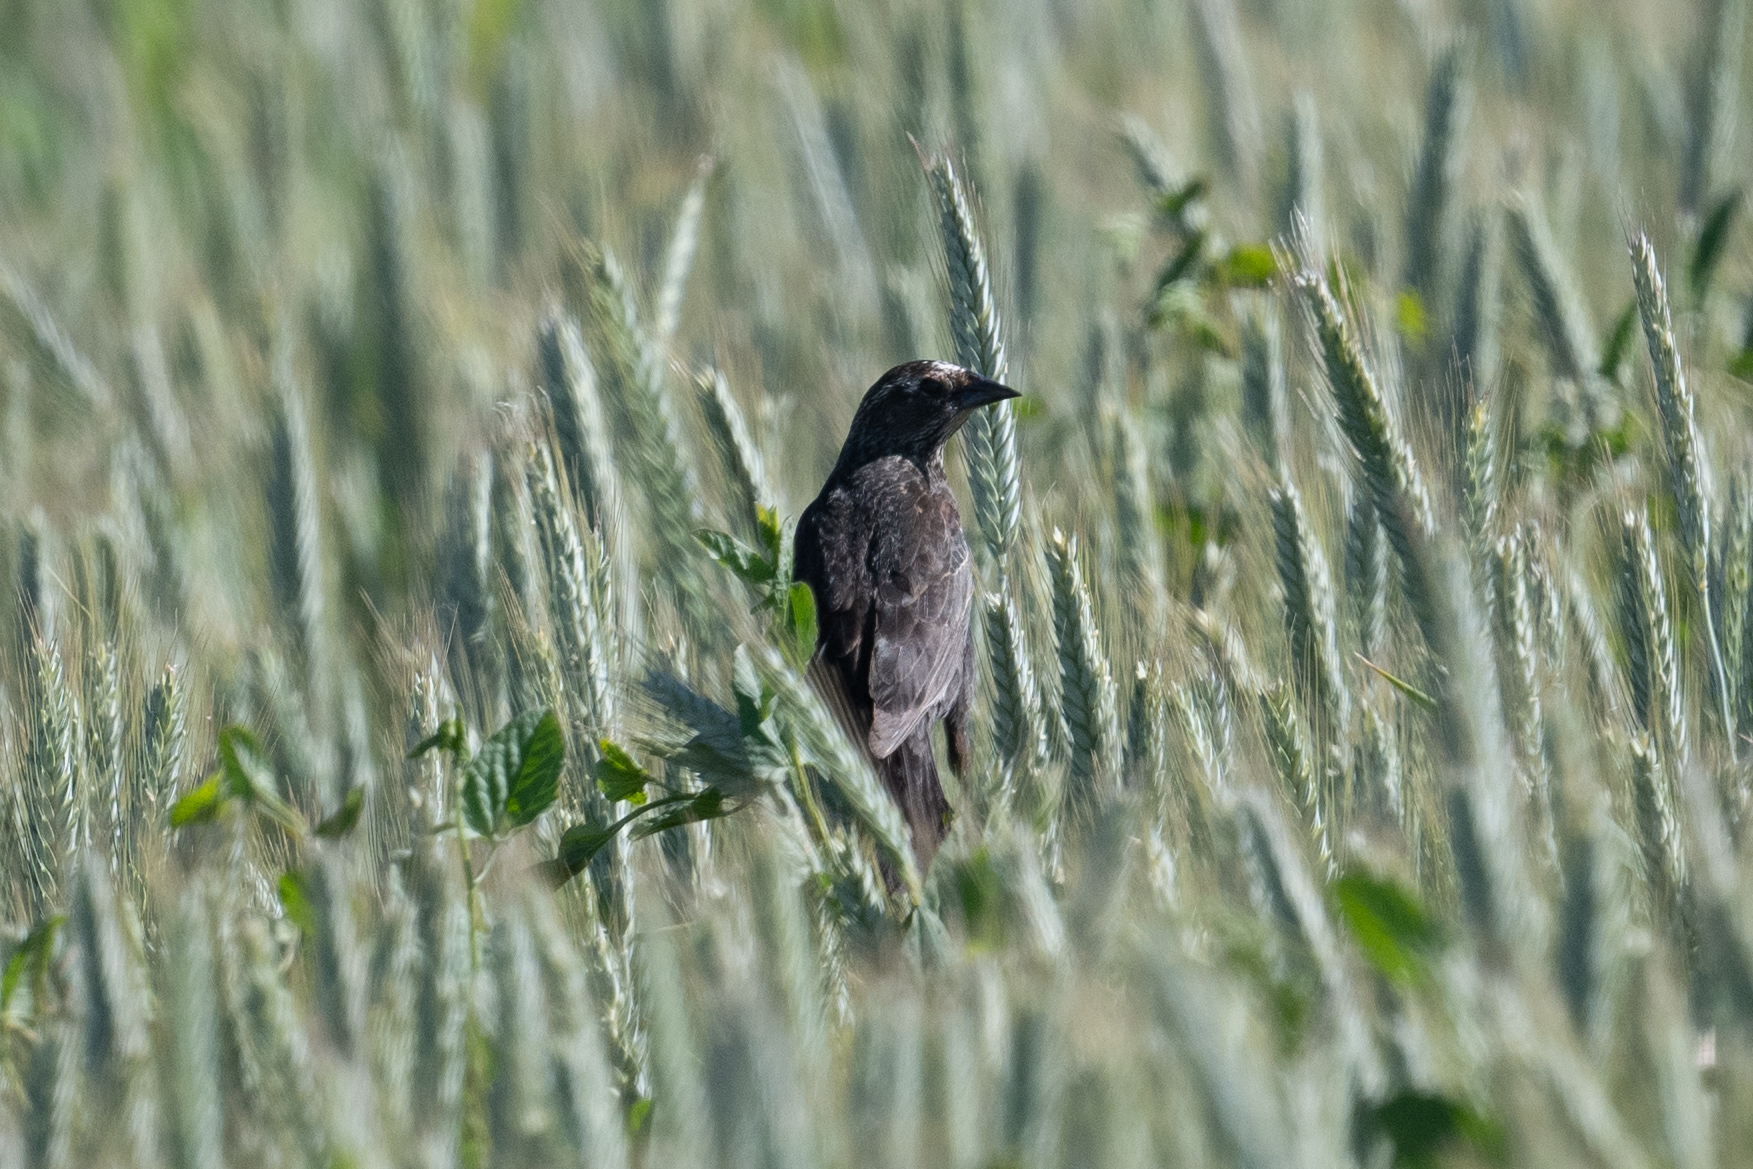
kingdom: Animalia
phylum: Chordata
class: Aves
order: Passeriformes
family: Icteridae
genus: Agelaius
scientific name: Agelaius phoeniceus
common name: Red-winged blackbird
